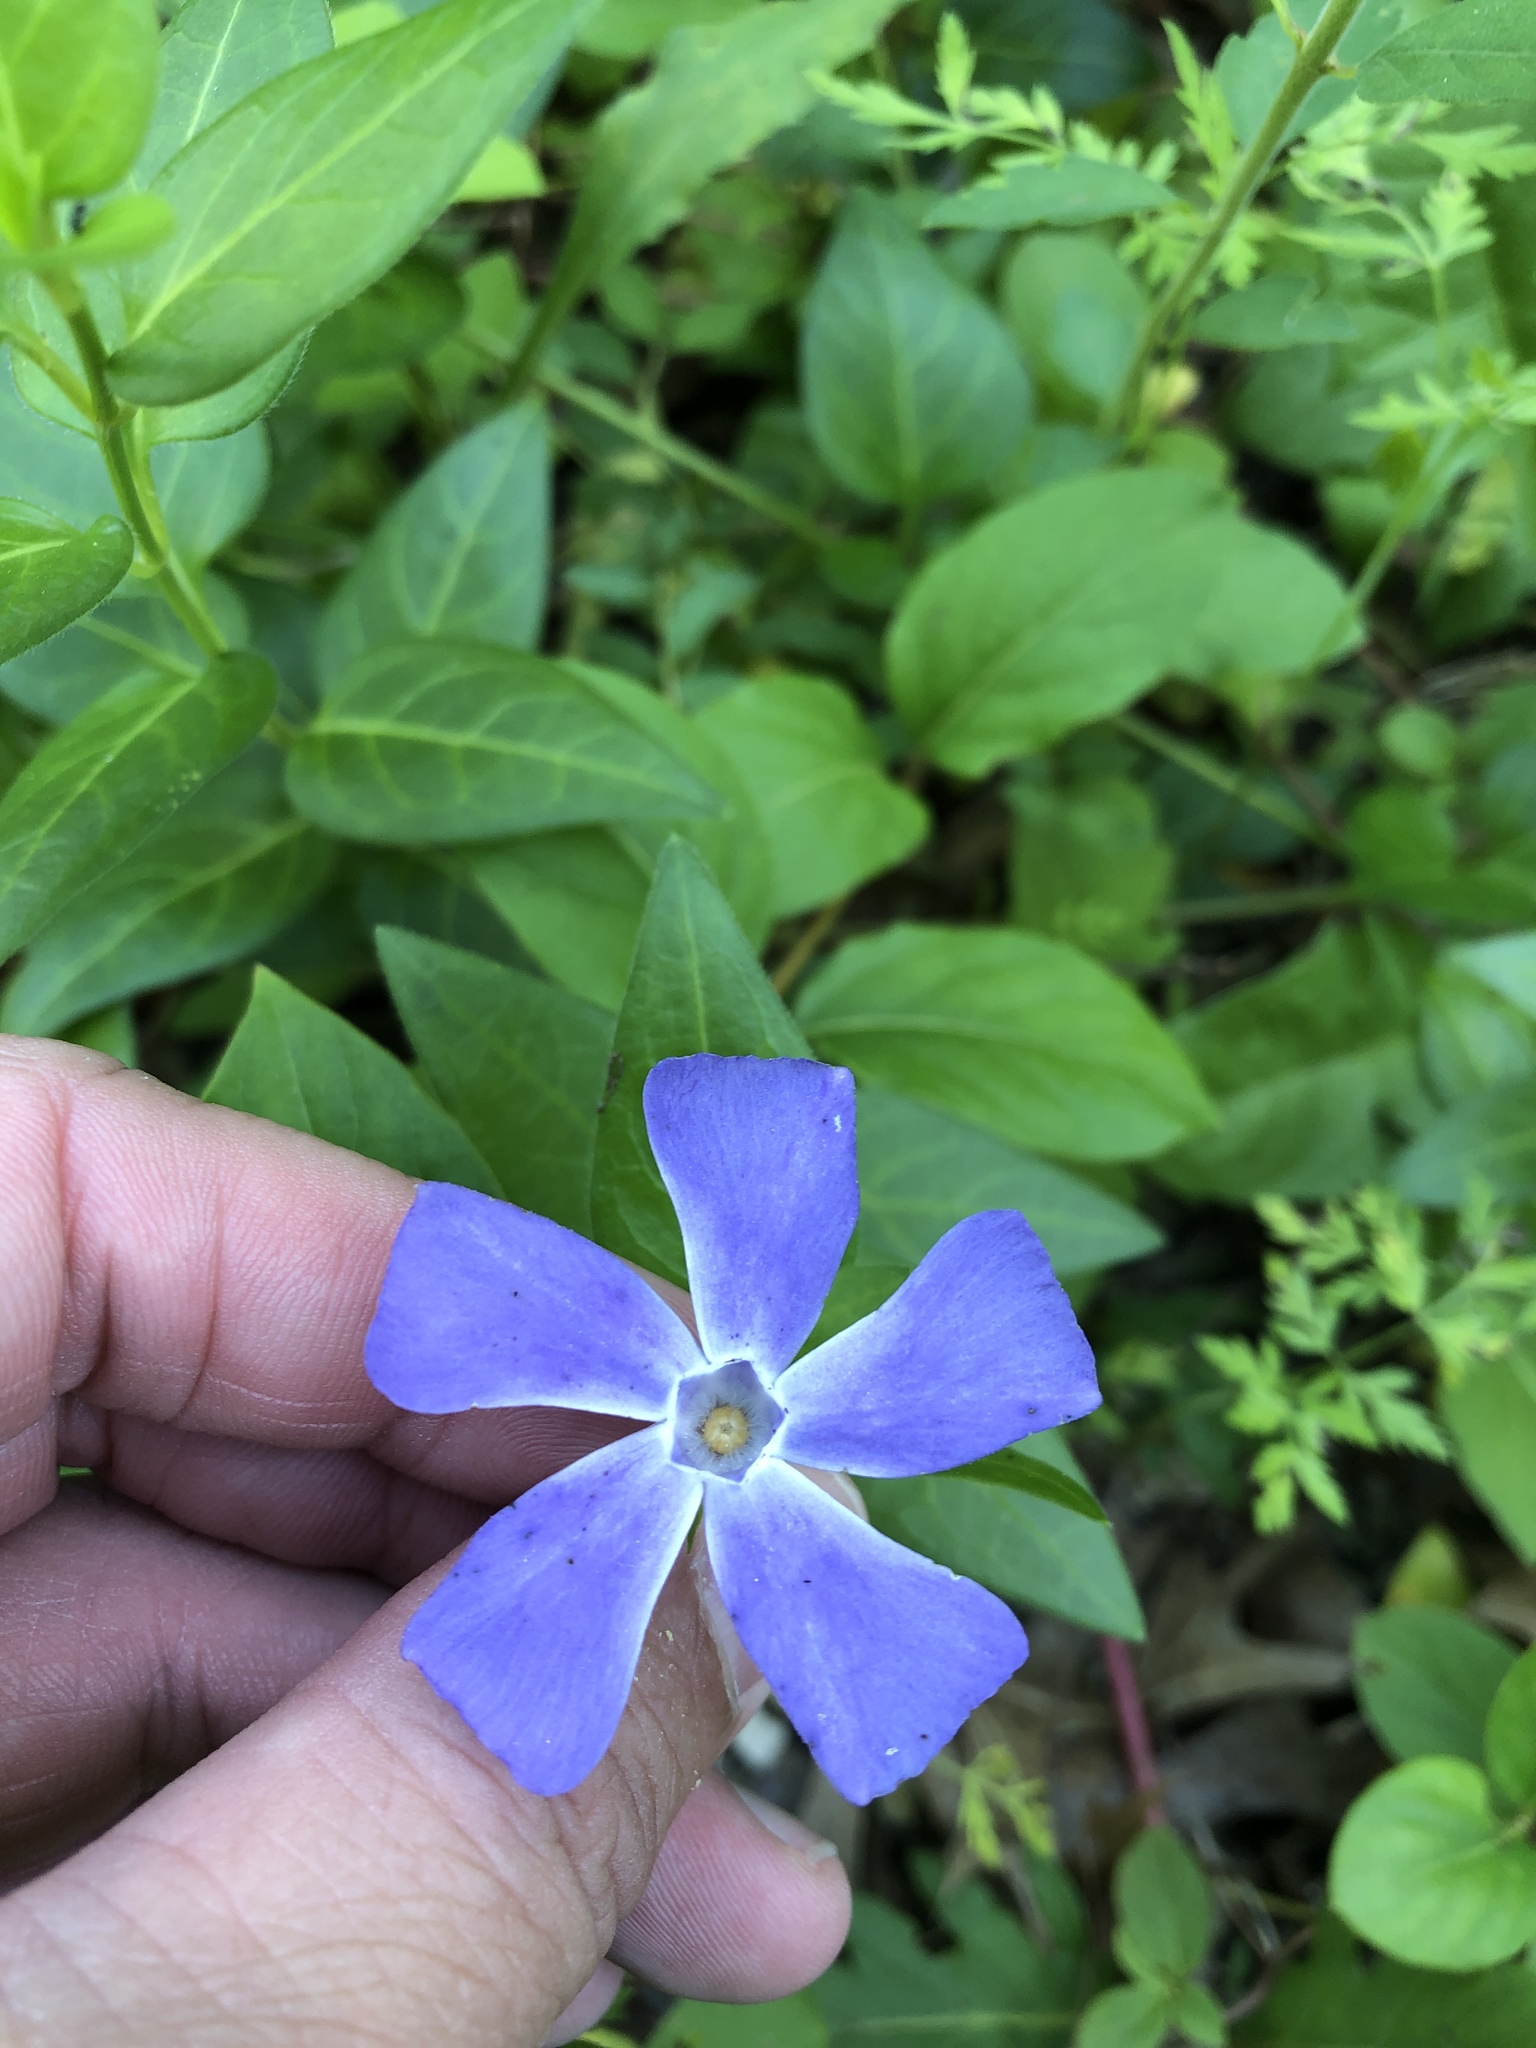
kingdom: Plantae
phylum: Tracheophyta
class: Magnoliopsida
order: Gentianales
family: Apocynaceae
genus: Vinca
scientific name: Vinca major
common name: Greater periwinkle
